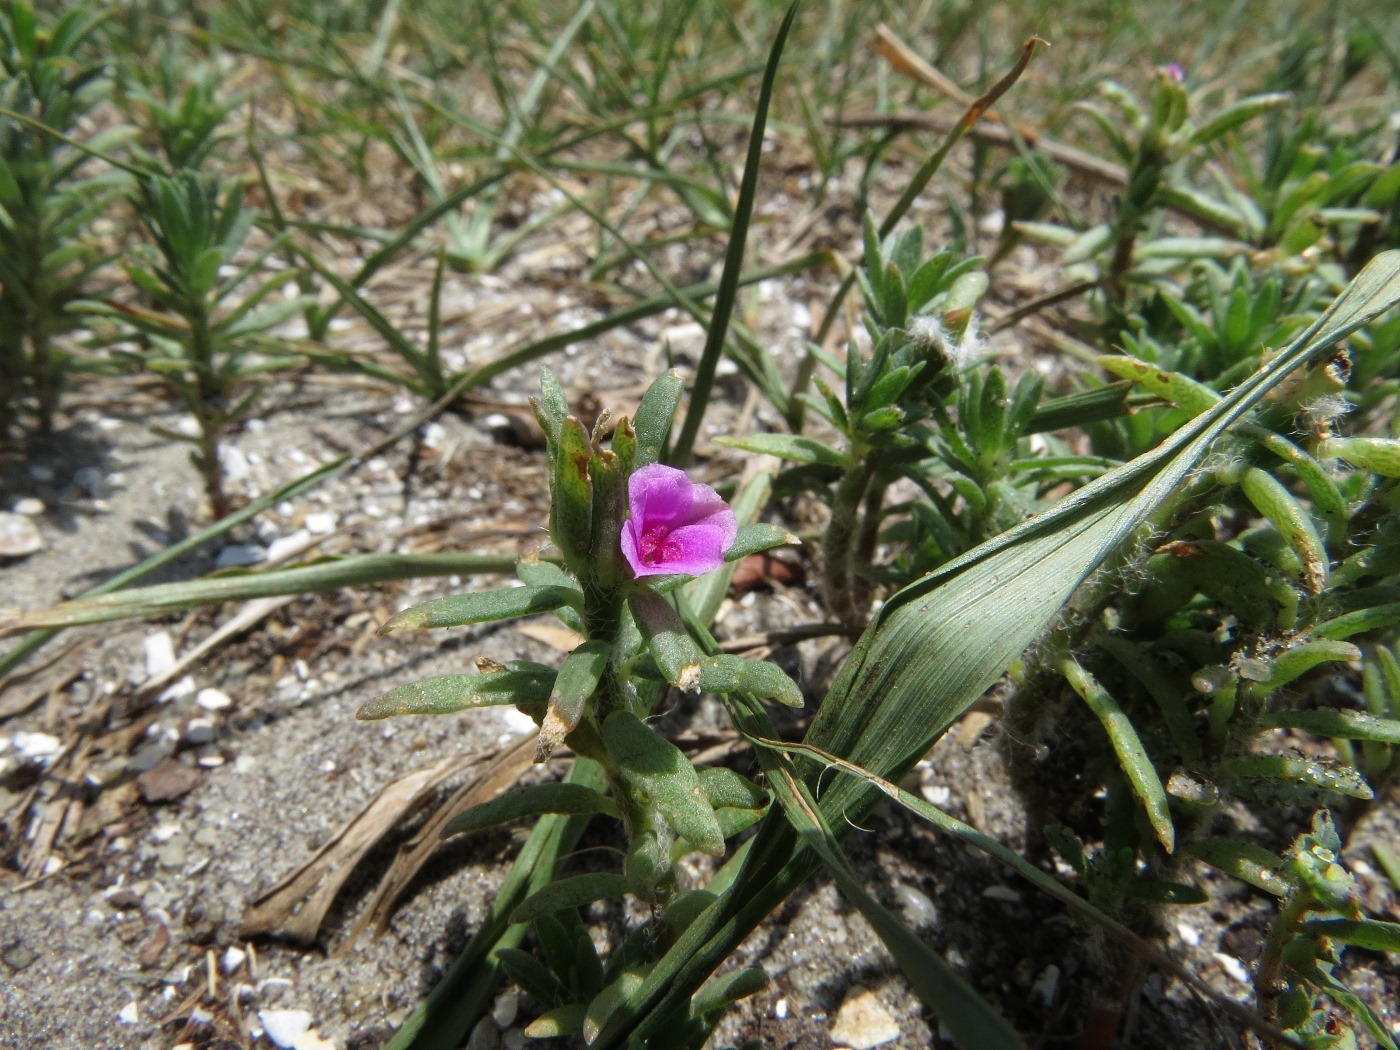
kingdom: Plantae
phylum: Tracheophyta
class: Magnoliopsida
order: Caryophyllales
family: Portulacaceae
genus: Portulaca
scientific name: Portulaca amilis
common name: Paraguayan purslane
